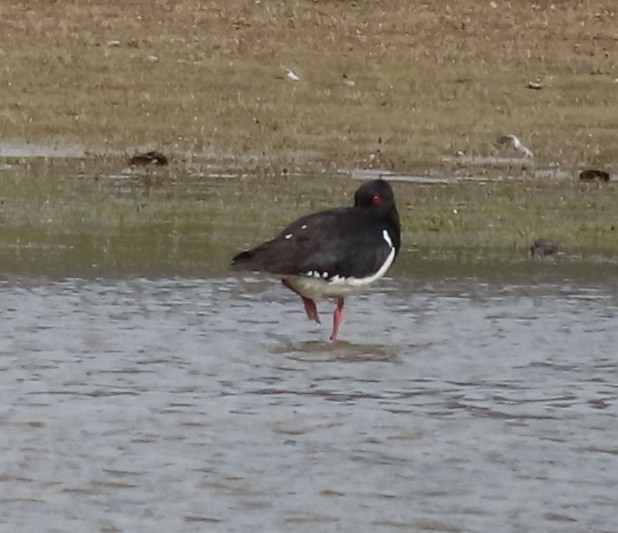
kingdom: Animalia
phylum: Chordata
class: Aves
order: Charadriiformes
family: Haematopodidae
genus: Haematopus
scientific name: Haematopus finschi
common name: South island oystercatcher
